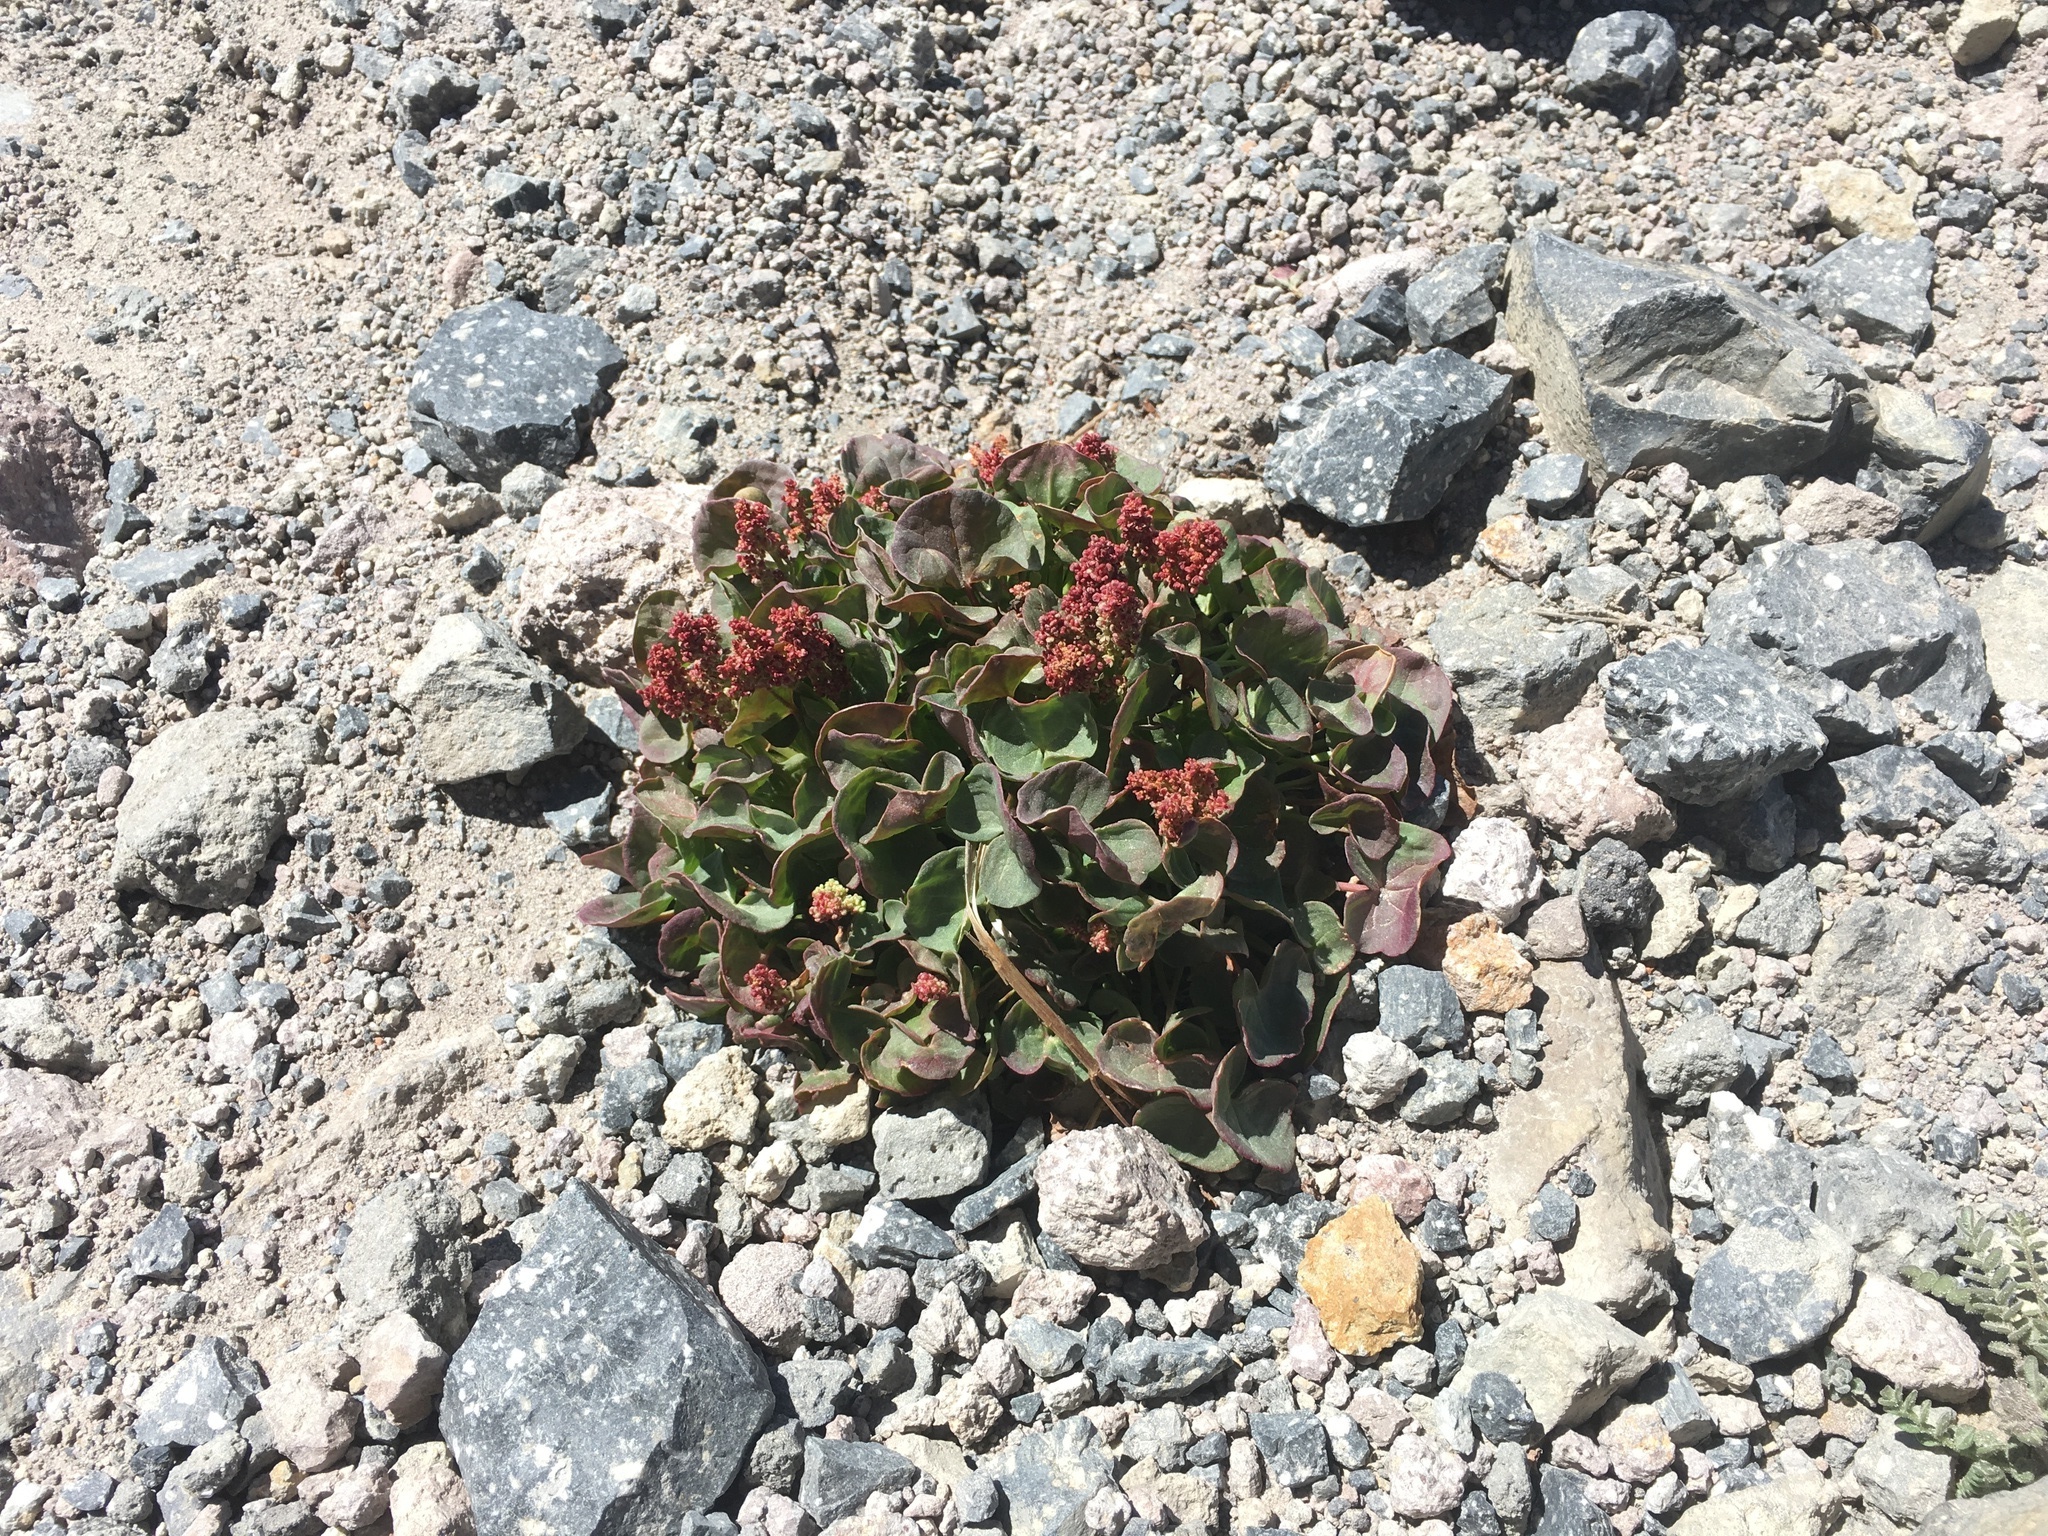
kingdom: Plantae
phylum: Tracheophyta
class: Magnoliopsida
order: Caryophyllales
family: Polygonaceae
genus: Oxyria
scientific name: Oxyria digyna
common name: Alpine mountain-sorrel
